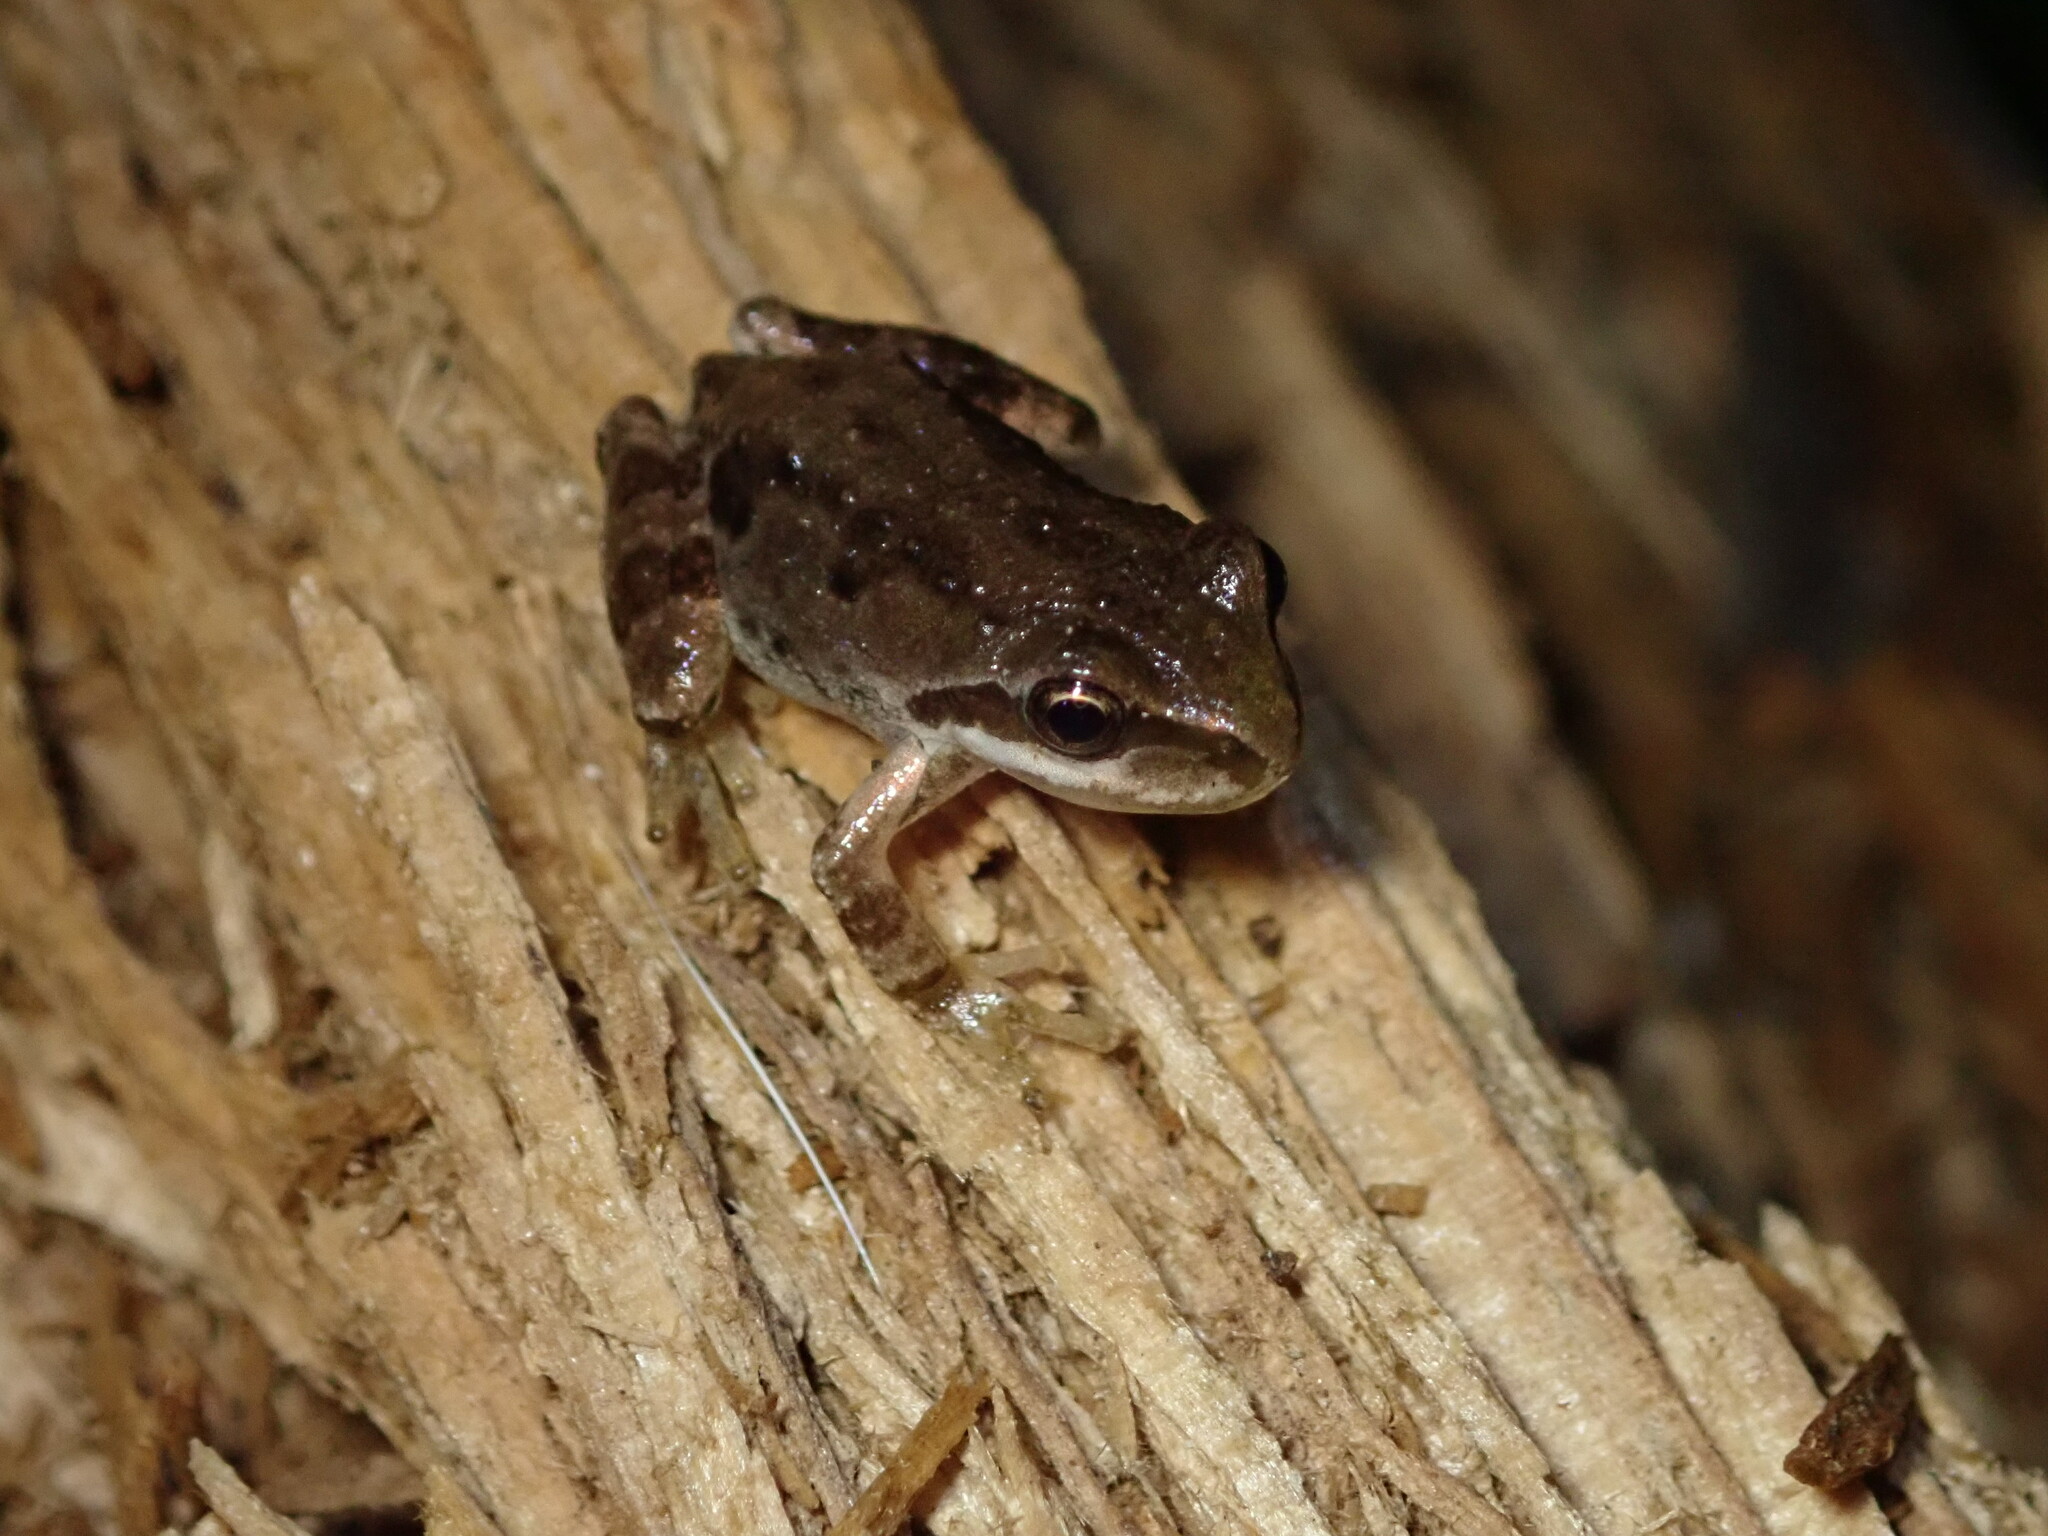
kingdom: Animalia
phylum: Chordata
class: Amphibia
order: Anura
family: Hylidae
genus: Pseudacris
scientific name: Pseudacris regilla
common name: Pacific chorus frog
